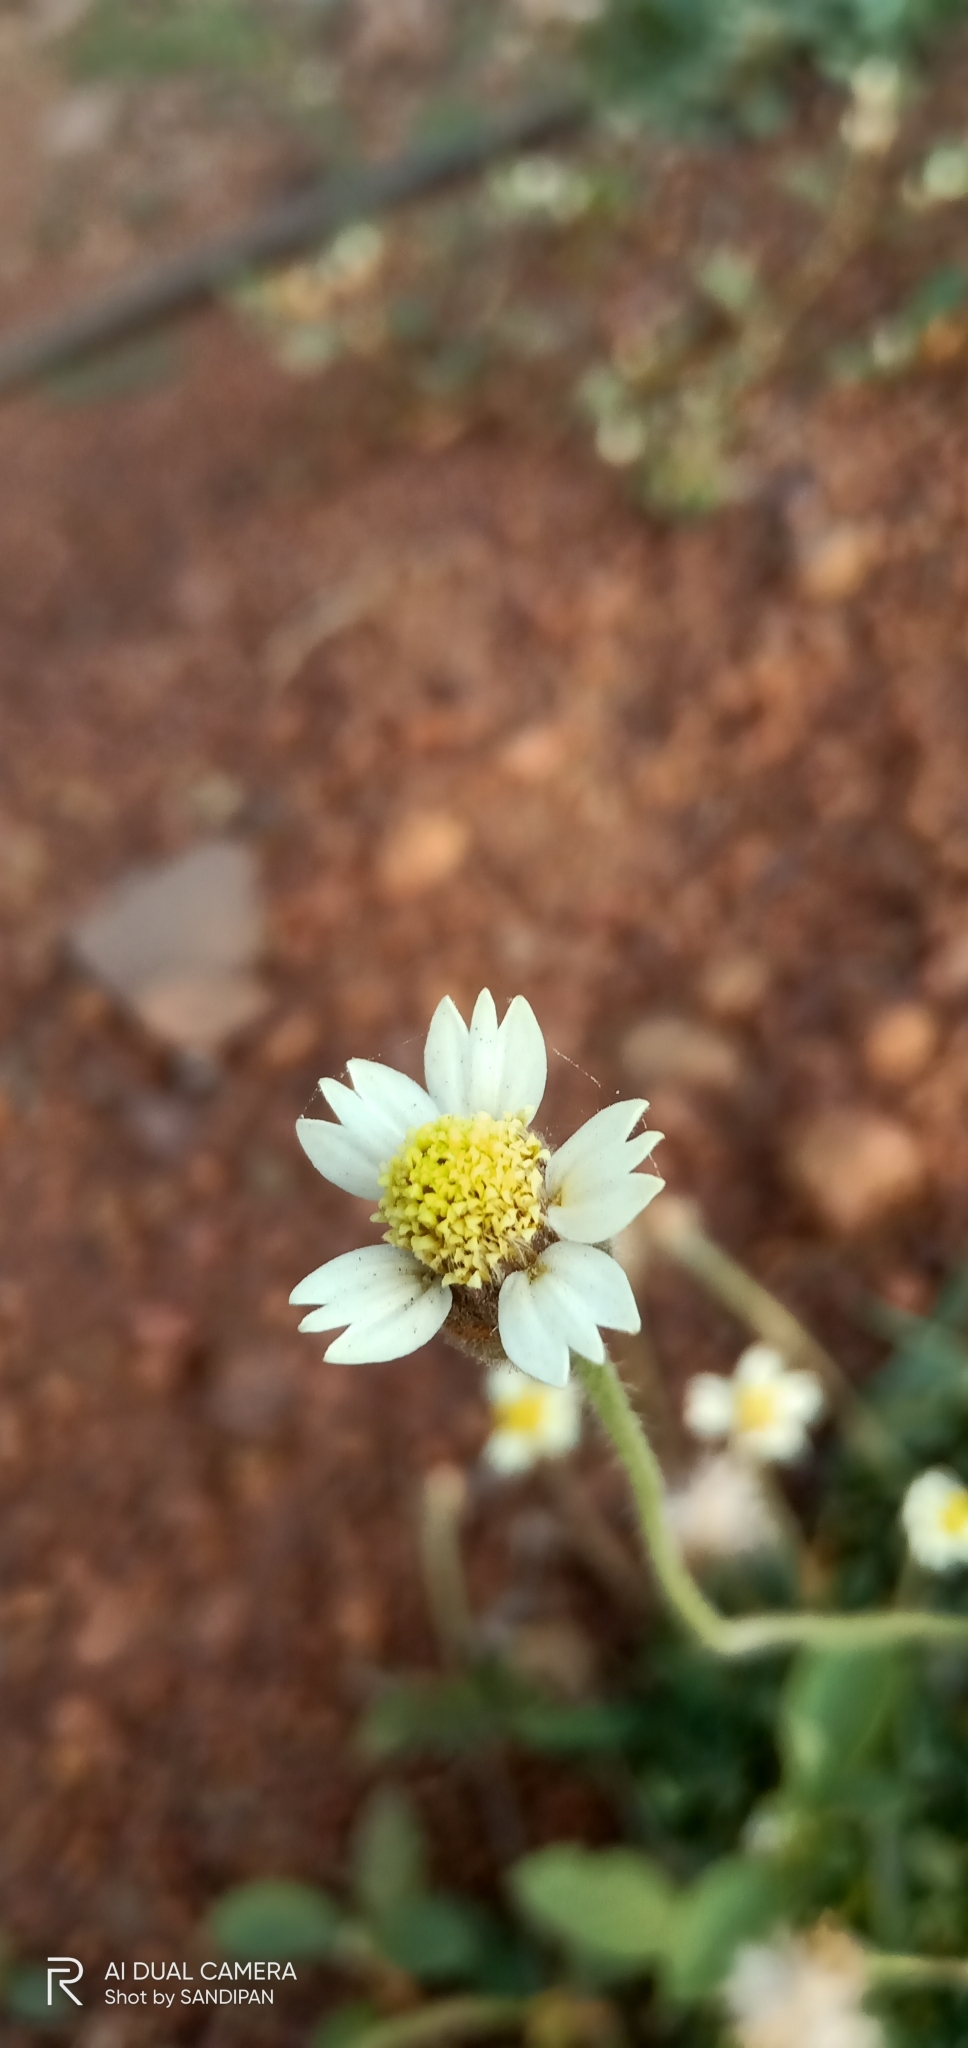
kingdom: Plantae
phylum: Tracheophyta
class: Magnoliopsida
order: Asterales
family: Asteraceae
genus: Tridax
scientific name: Tridax procumbens
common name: Coatbuttons
